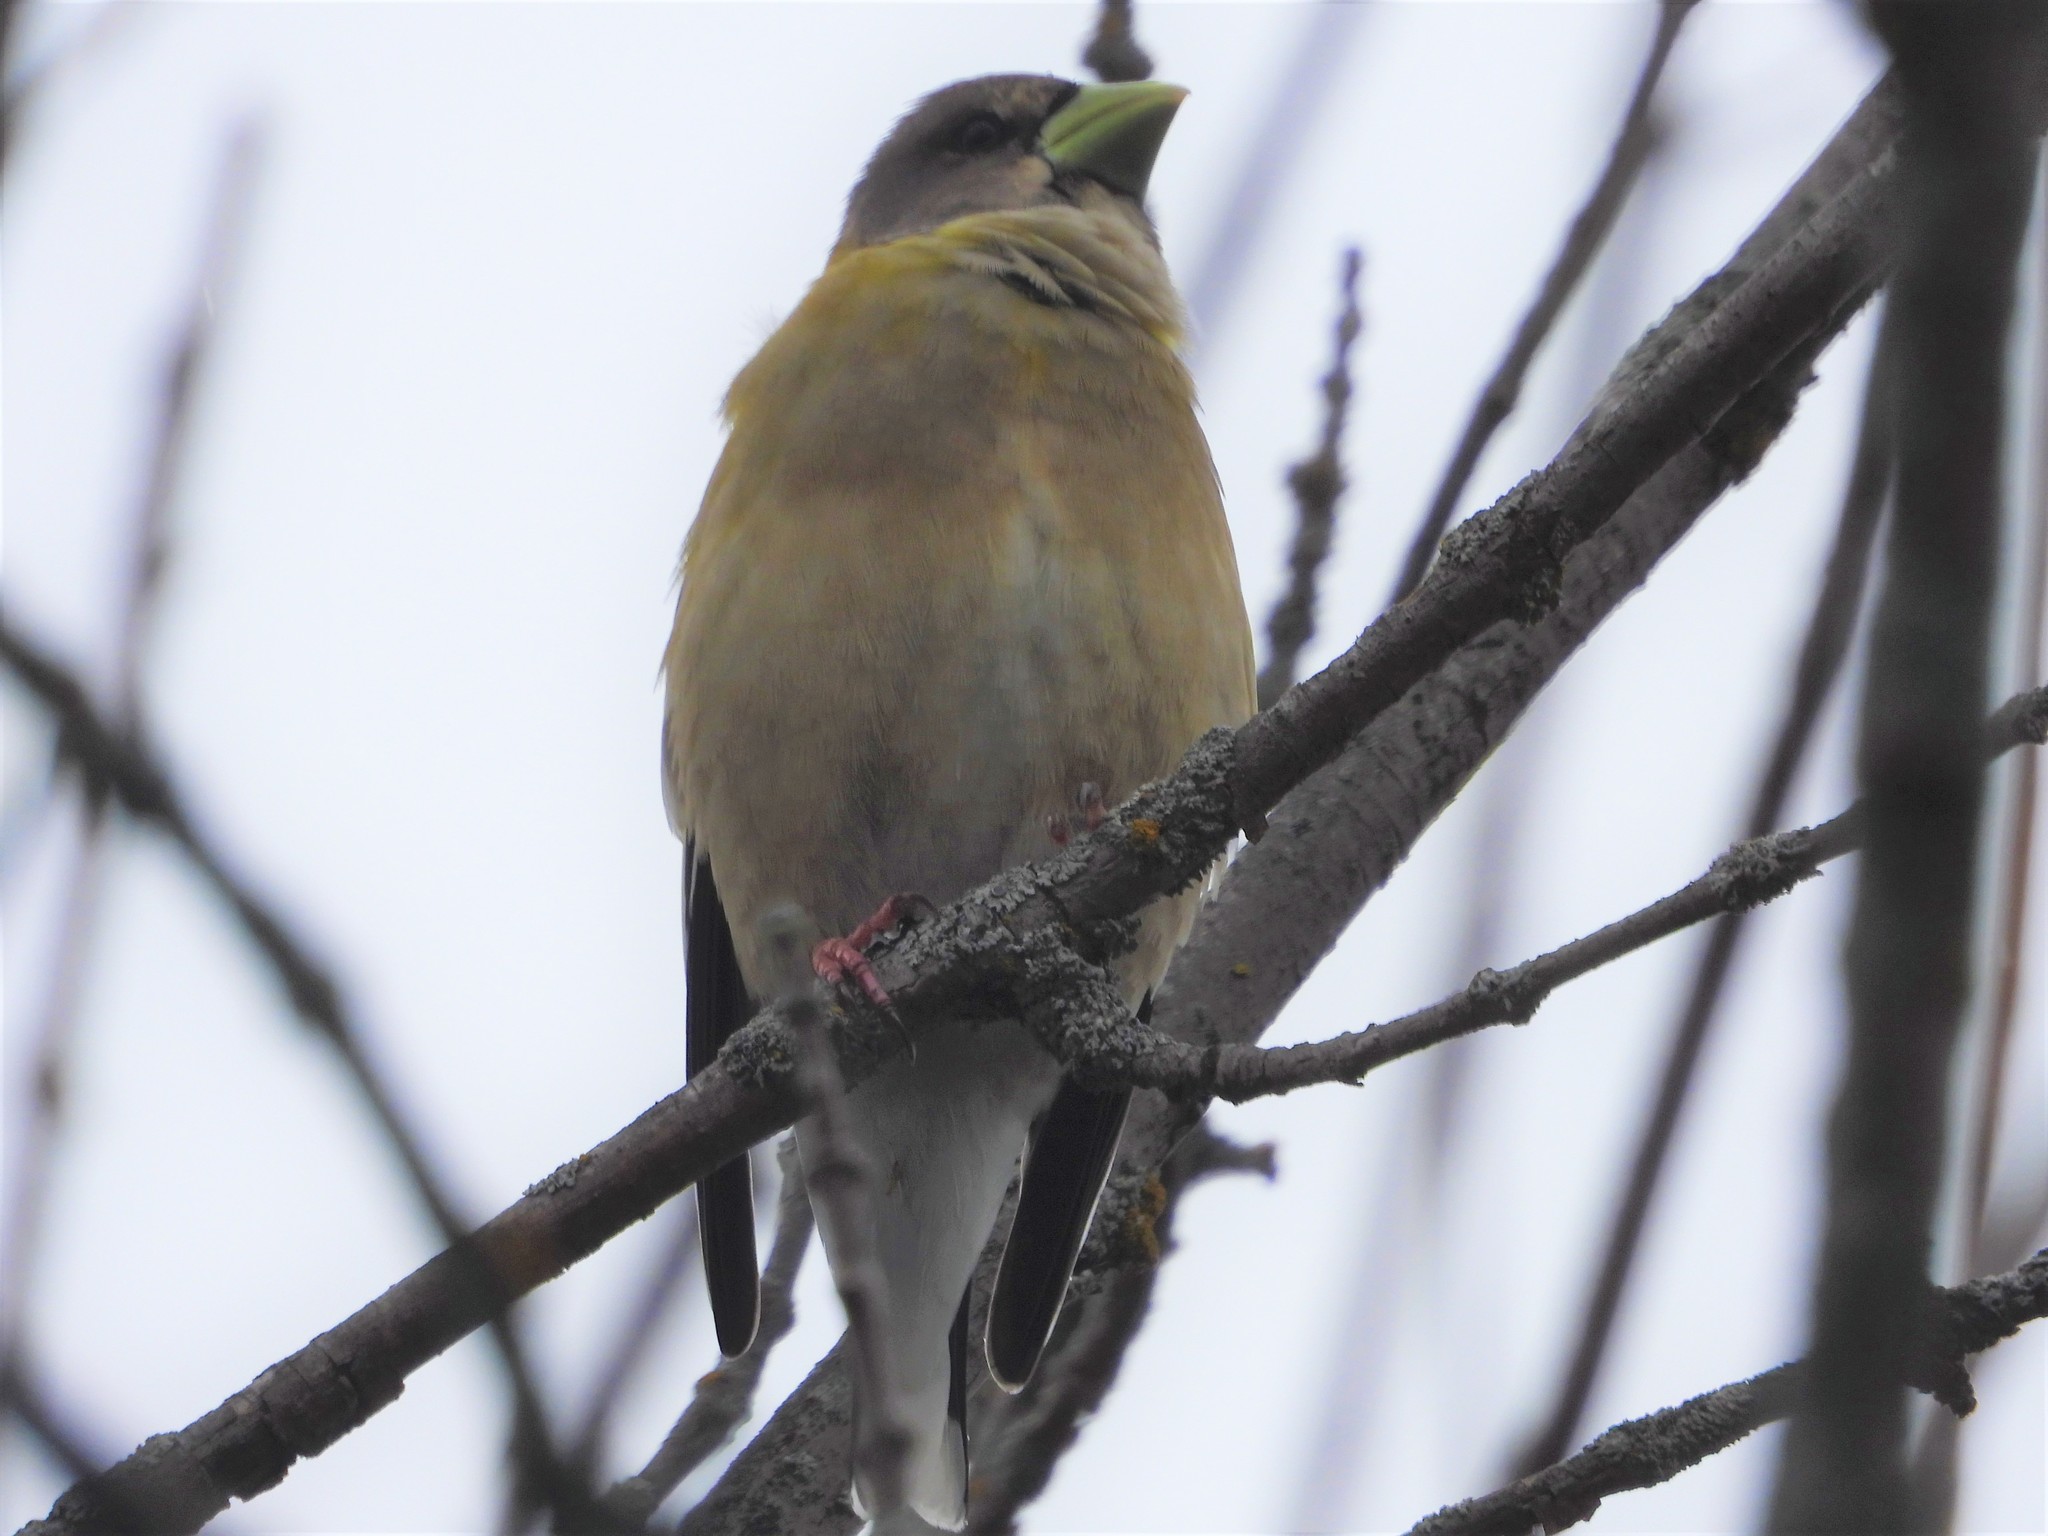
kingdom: Animalia
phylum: Chordata
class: Aves
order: Passeriformes
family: Fringillidae
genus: Hesperiphona
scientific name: Hesperiphona vespertina
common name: Evening grosbeak
